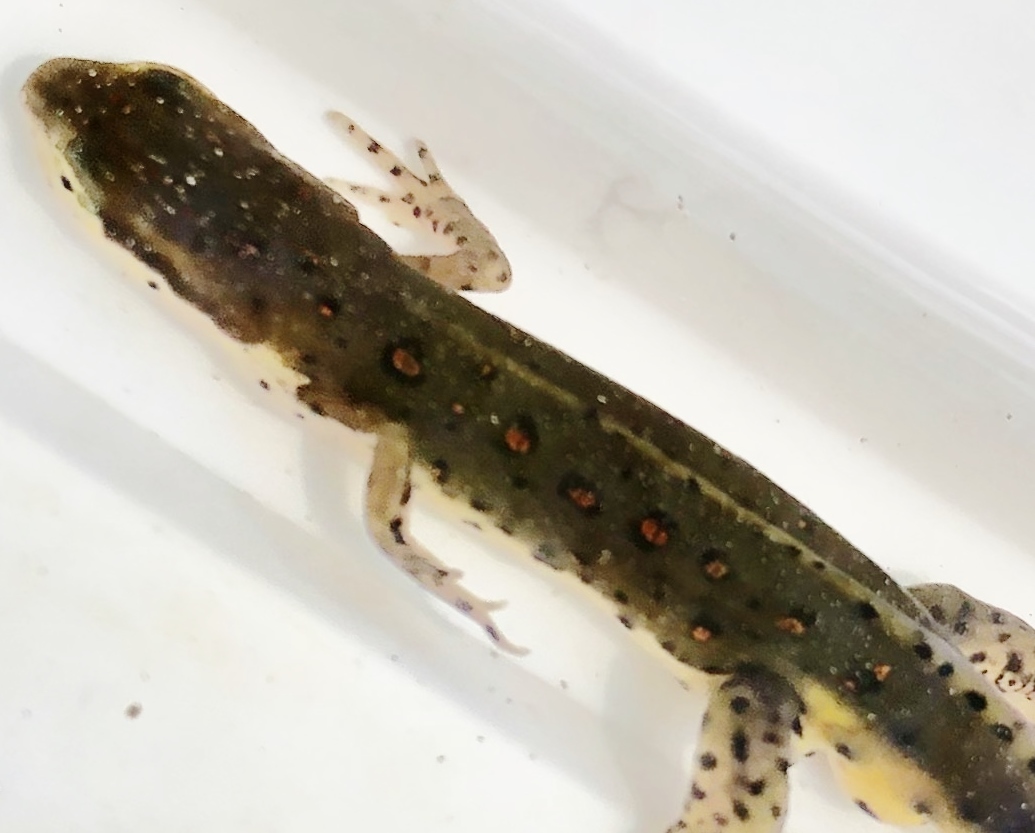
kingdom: Animalia
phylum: Chordata
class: Amphibia
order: Caudata
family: Salamandridae
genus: Notophthalmus
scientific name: Notophthalmus viridescens
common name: Eastern newt
